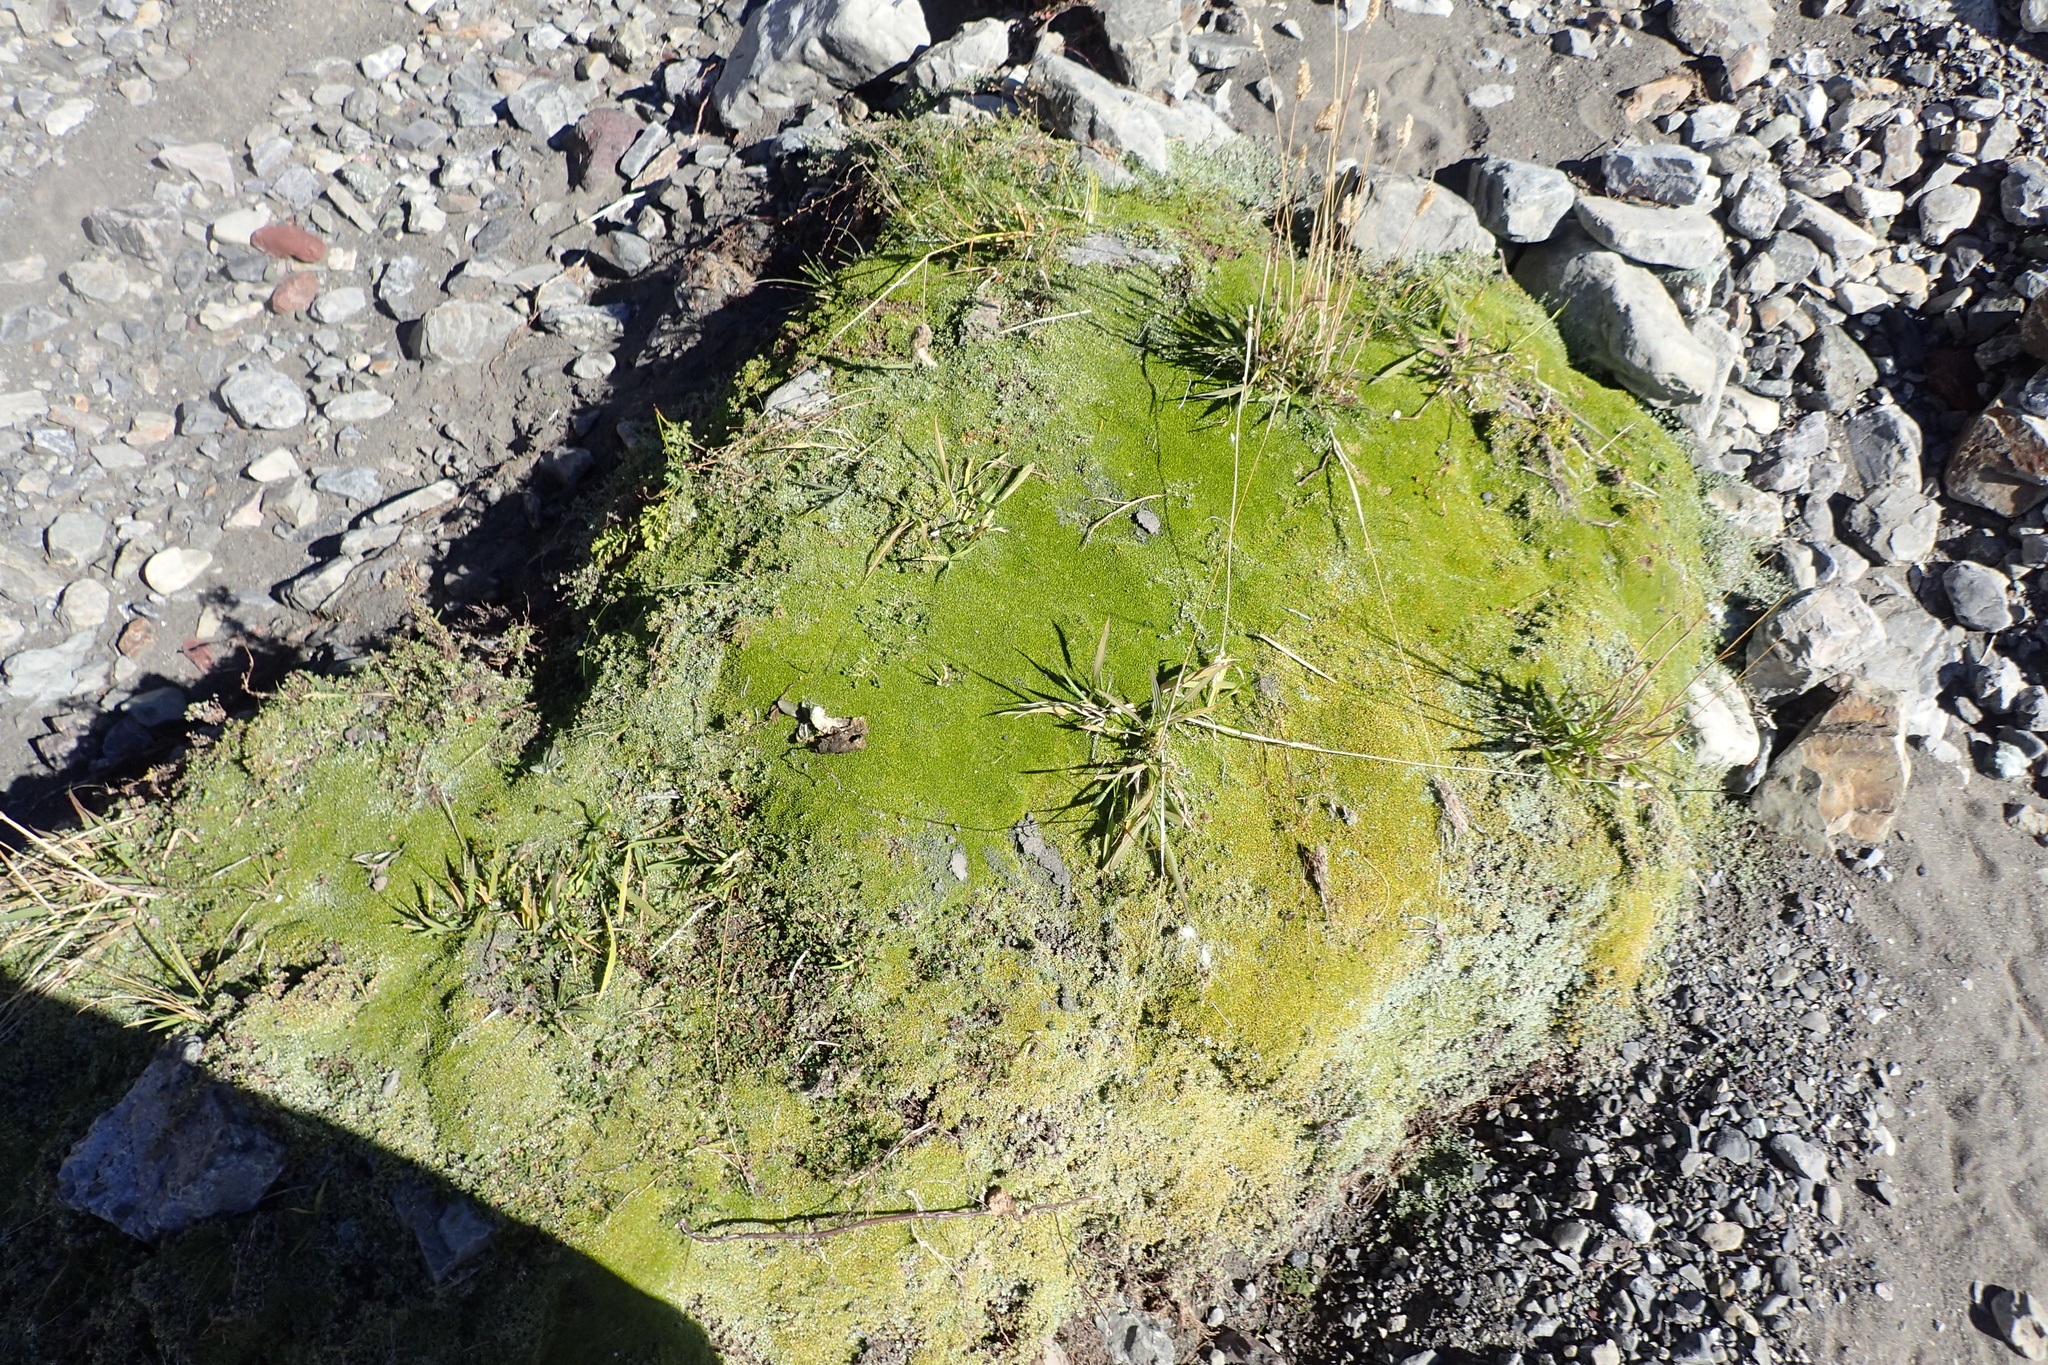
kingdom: Plantae
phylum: Tracheophyta
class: Magnoliopsida
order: Asterales
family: Asteraceae
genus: Raoulia
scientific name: Raoulia tenuicaulis
